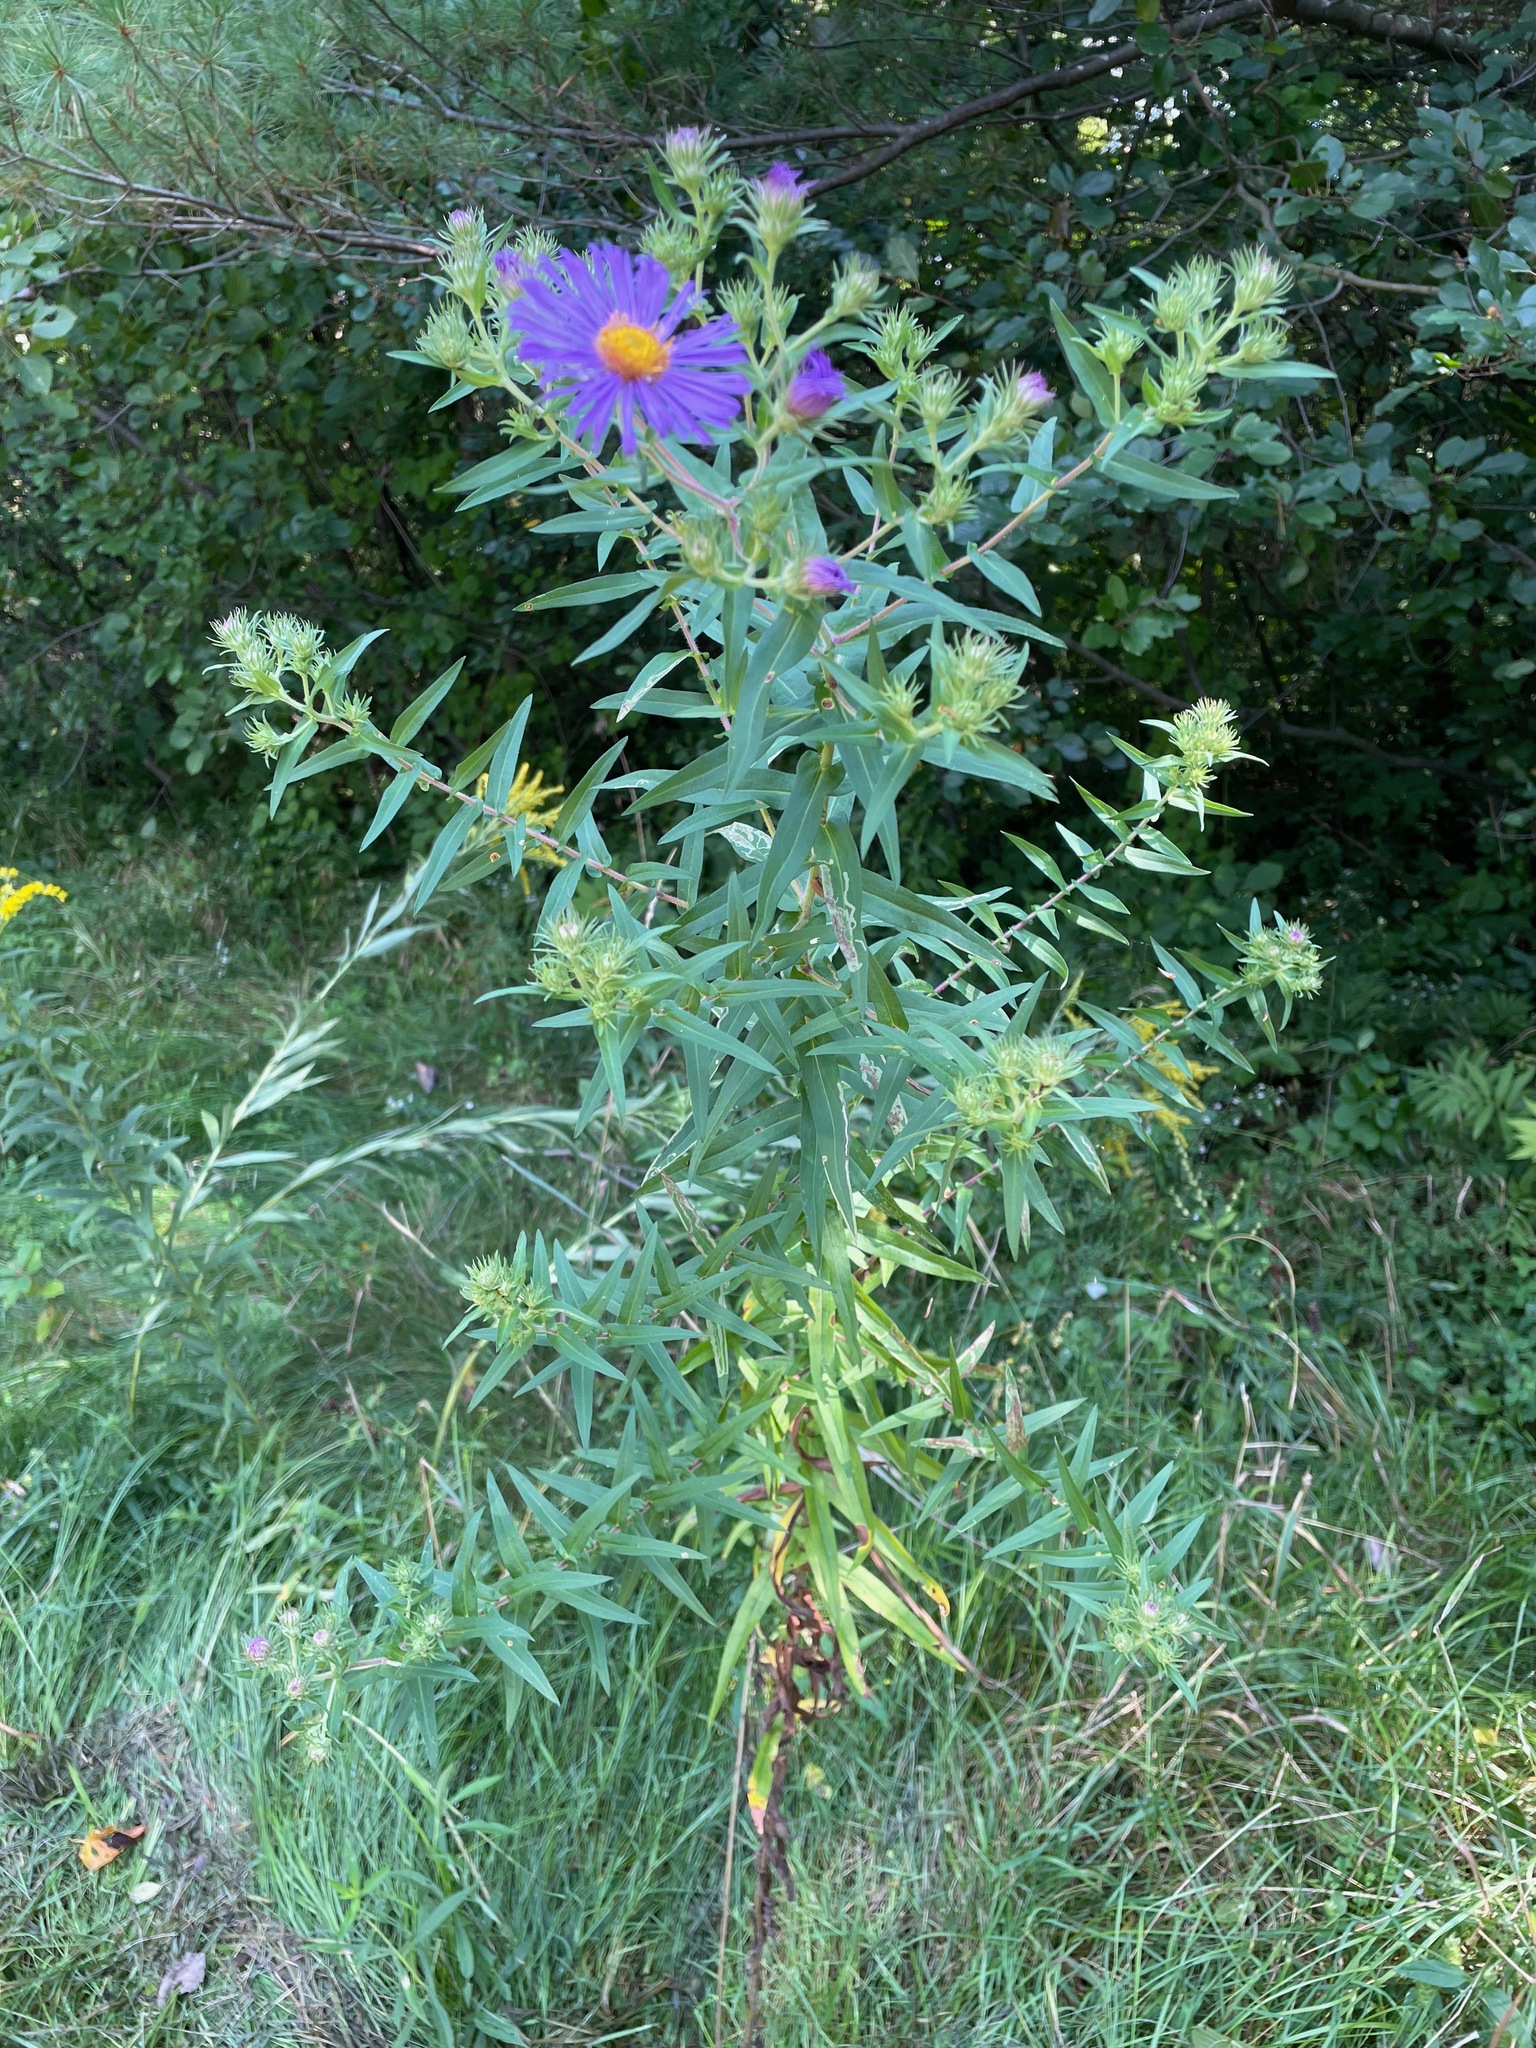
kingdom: Plantae
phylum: Tracheophyta
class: Magnoliopsida
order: Asterales
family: Asteraceae
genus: Symphyotrichum
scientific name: Symphyotrichum novae-angliae
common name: Michaelmas daisy
